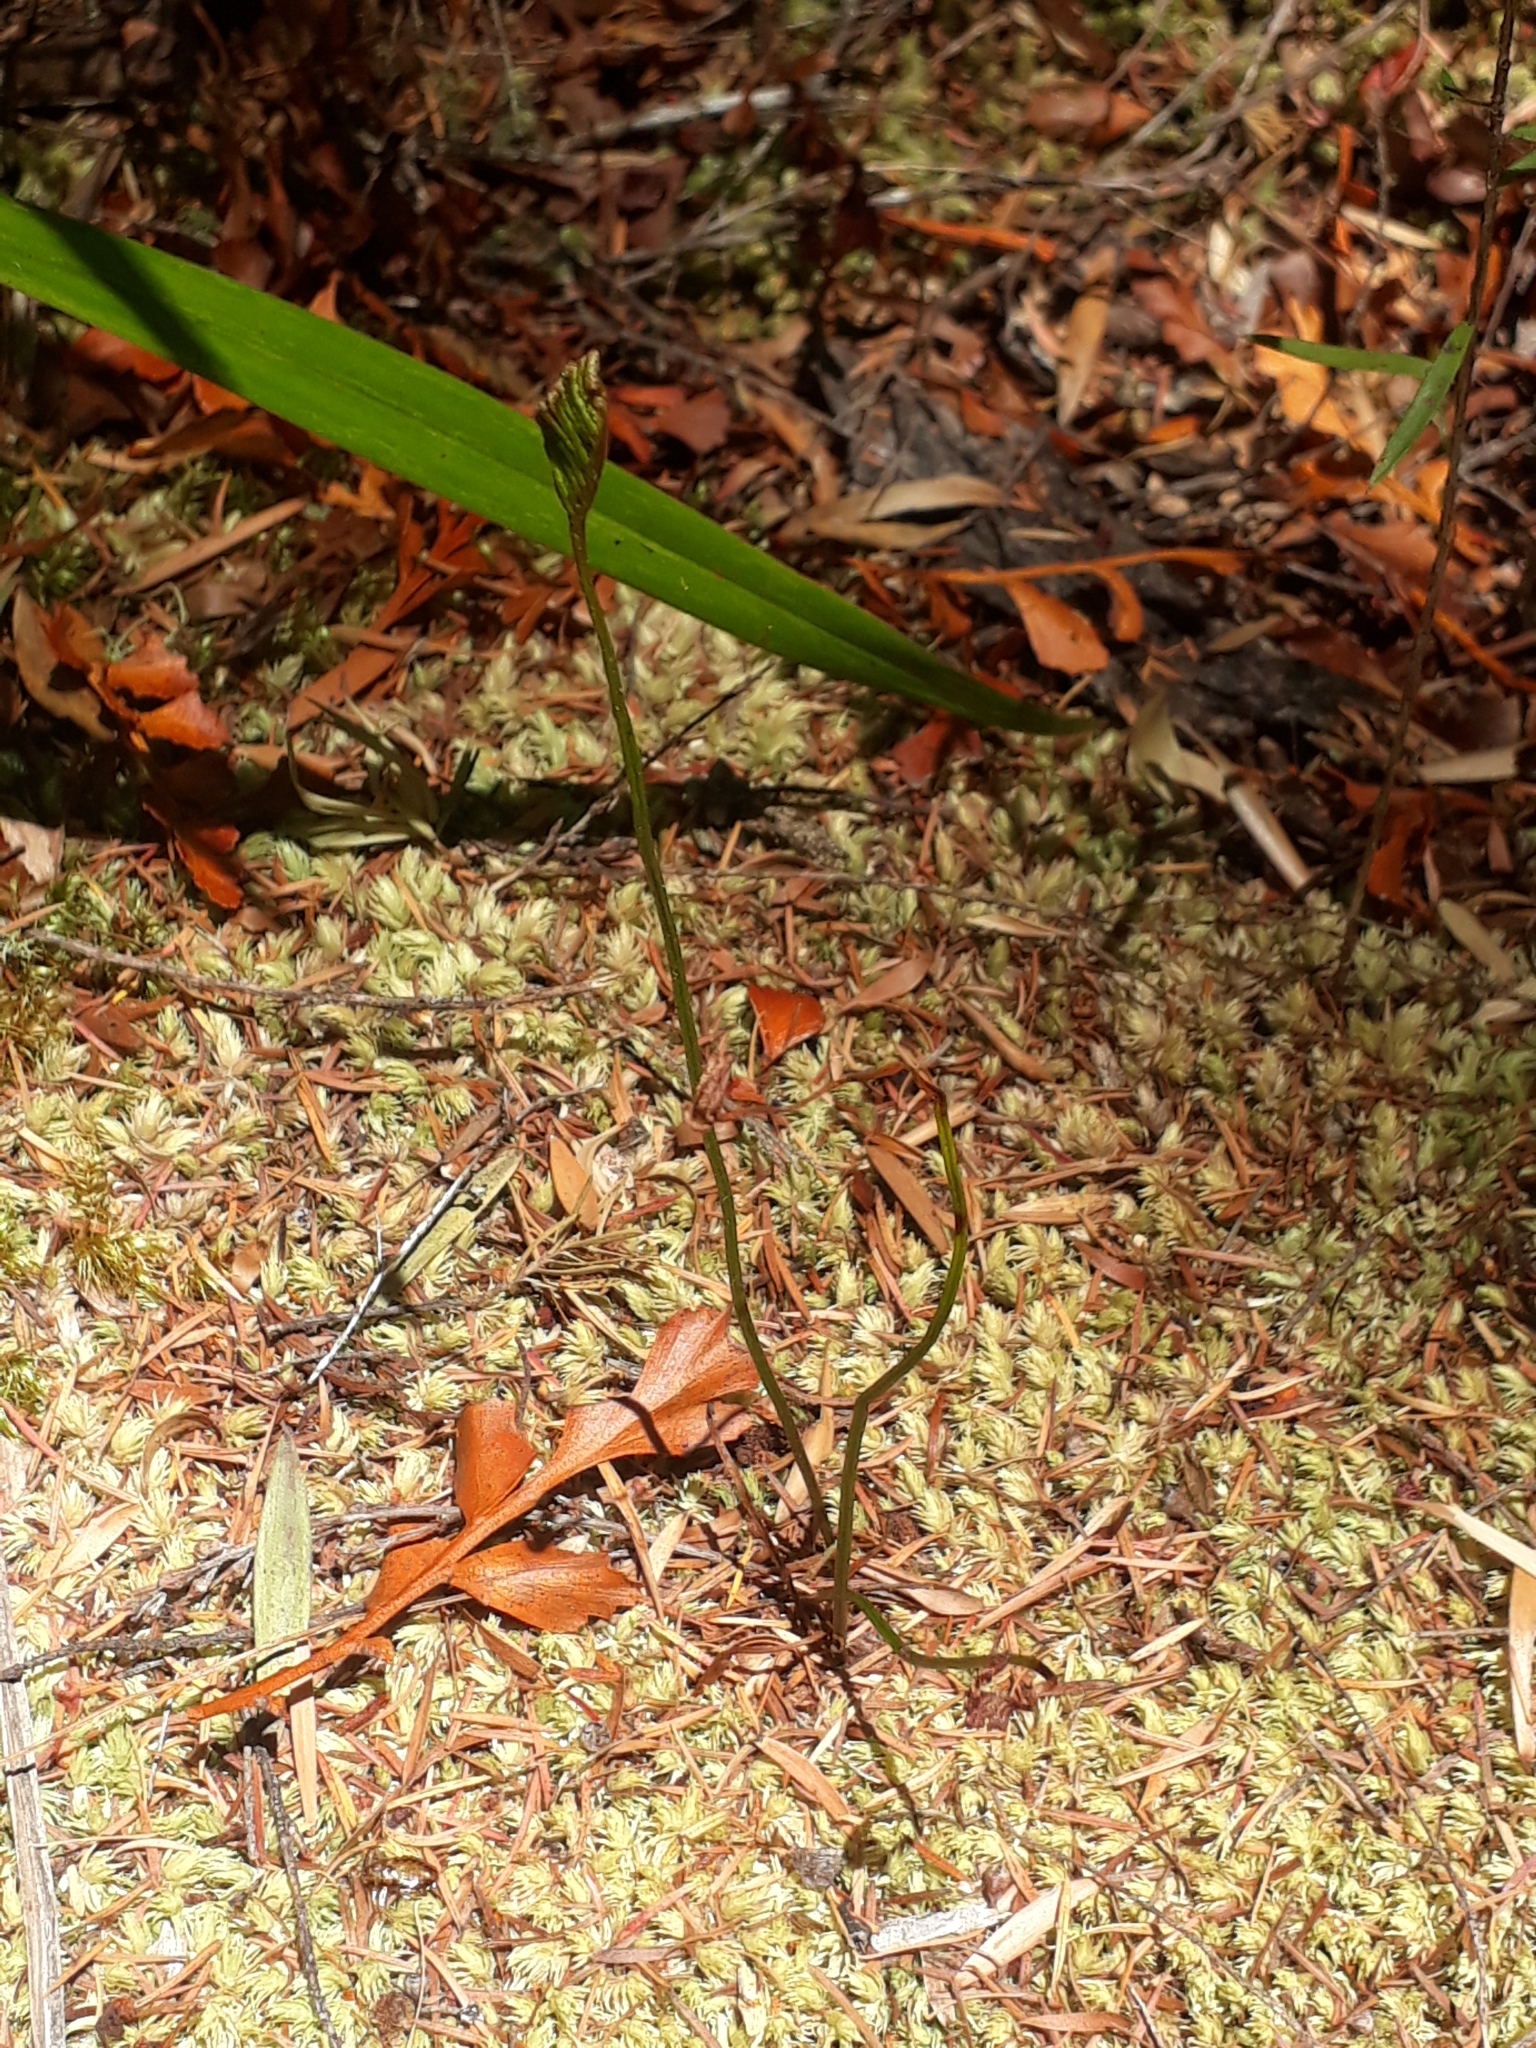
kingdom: Plantae
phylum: Tracheophyta
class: Polypodiopsida
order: Schizaeales
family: Schizaeaceae
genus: Schizaea
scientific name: Schizaea bifida
